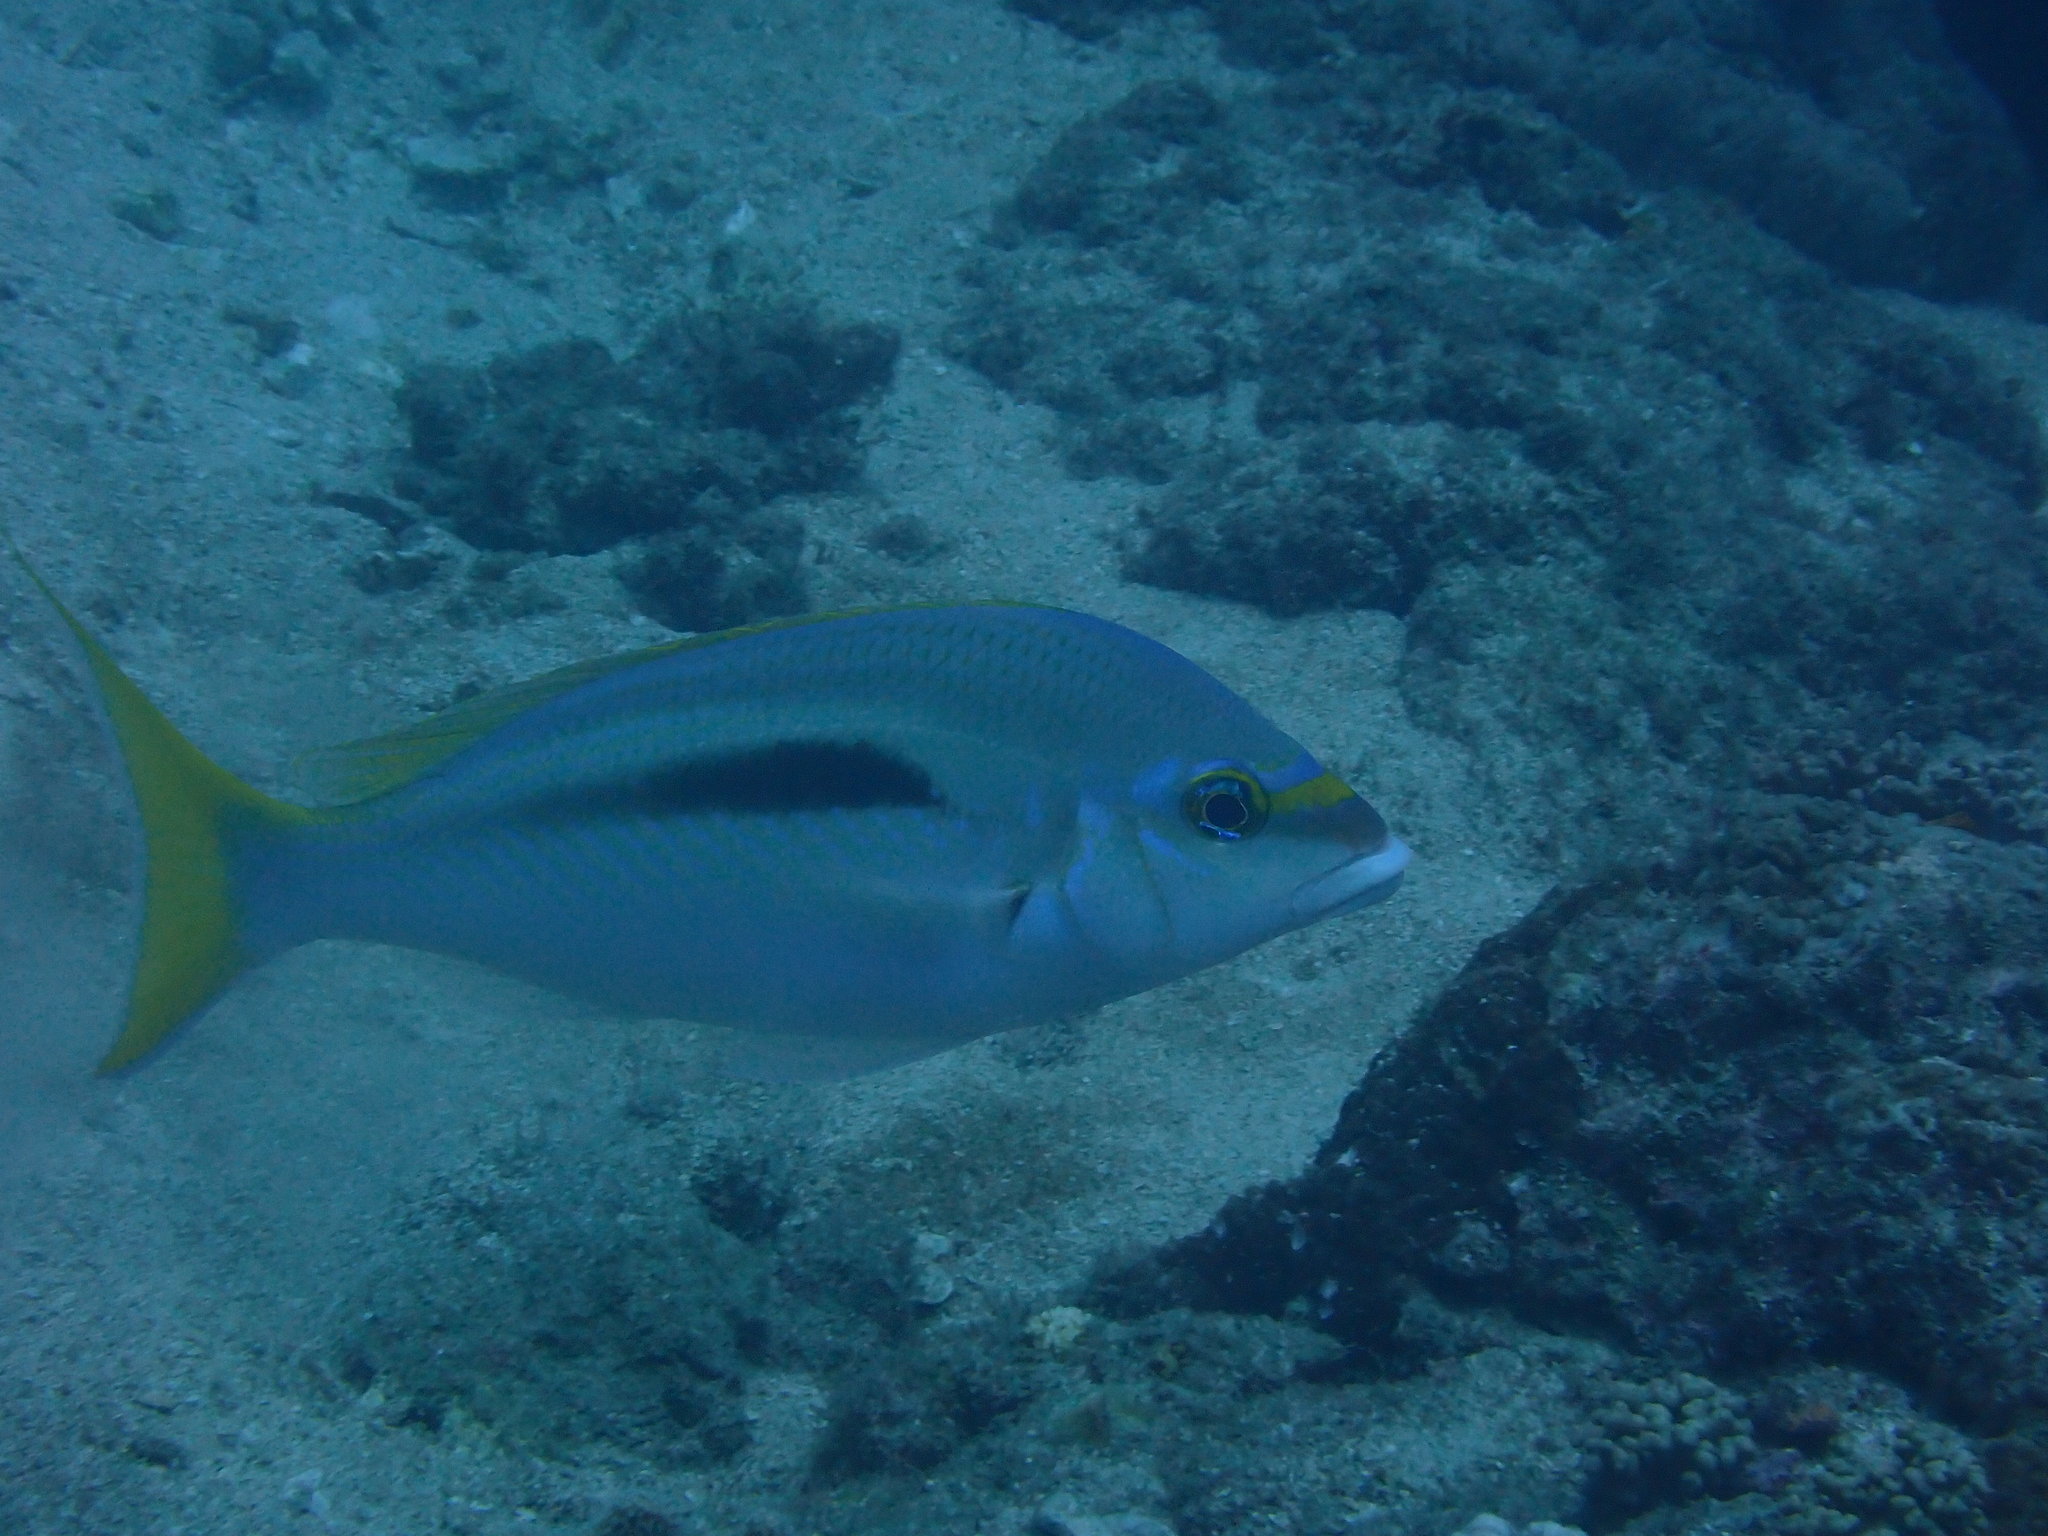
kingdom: Animalia
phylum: Chordata
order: Perciformes
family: Nemipteridae
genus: Scolopsis
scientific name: Scolopsis monogramma
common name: Monogrammed monocle bream
